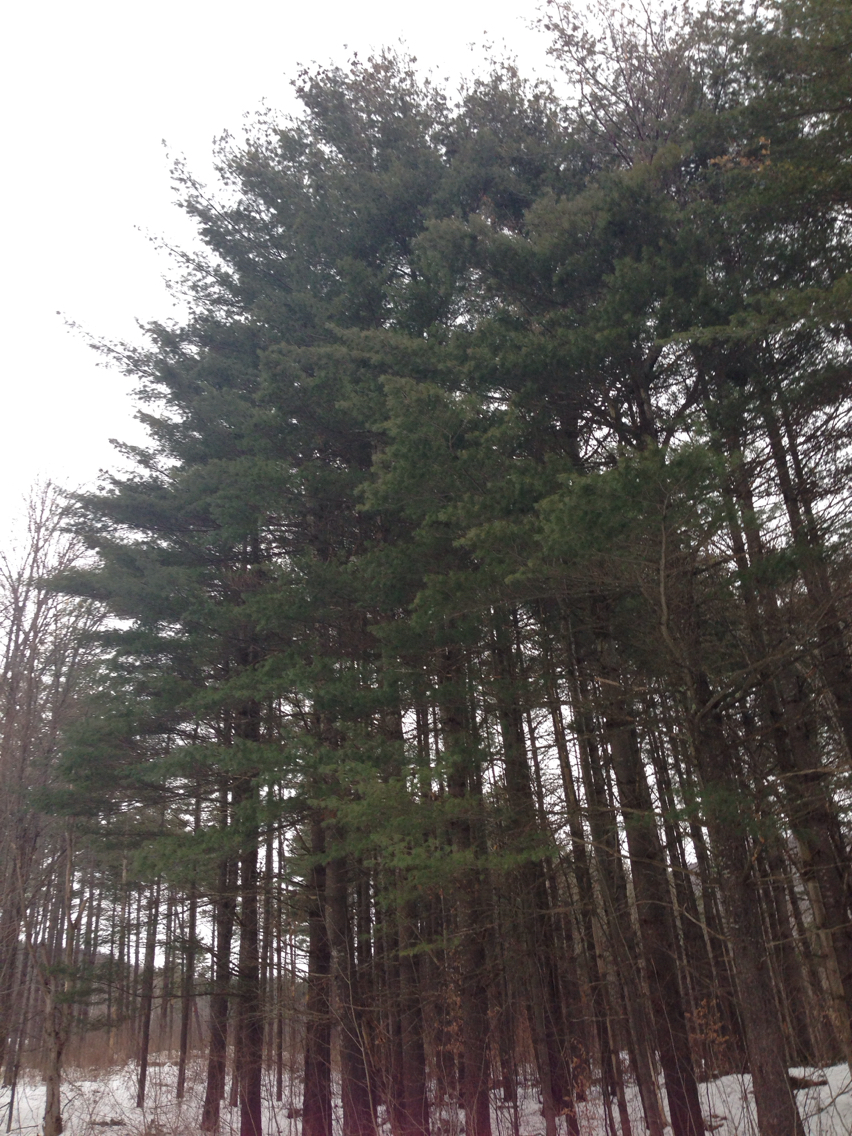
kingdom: Plantae
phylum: Tracheophyta
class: Pinopsida
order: Pinales
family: Pinaceae
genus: Pinus
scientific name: Pinus strobus
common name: Weymouth pine
